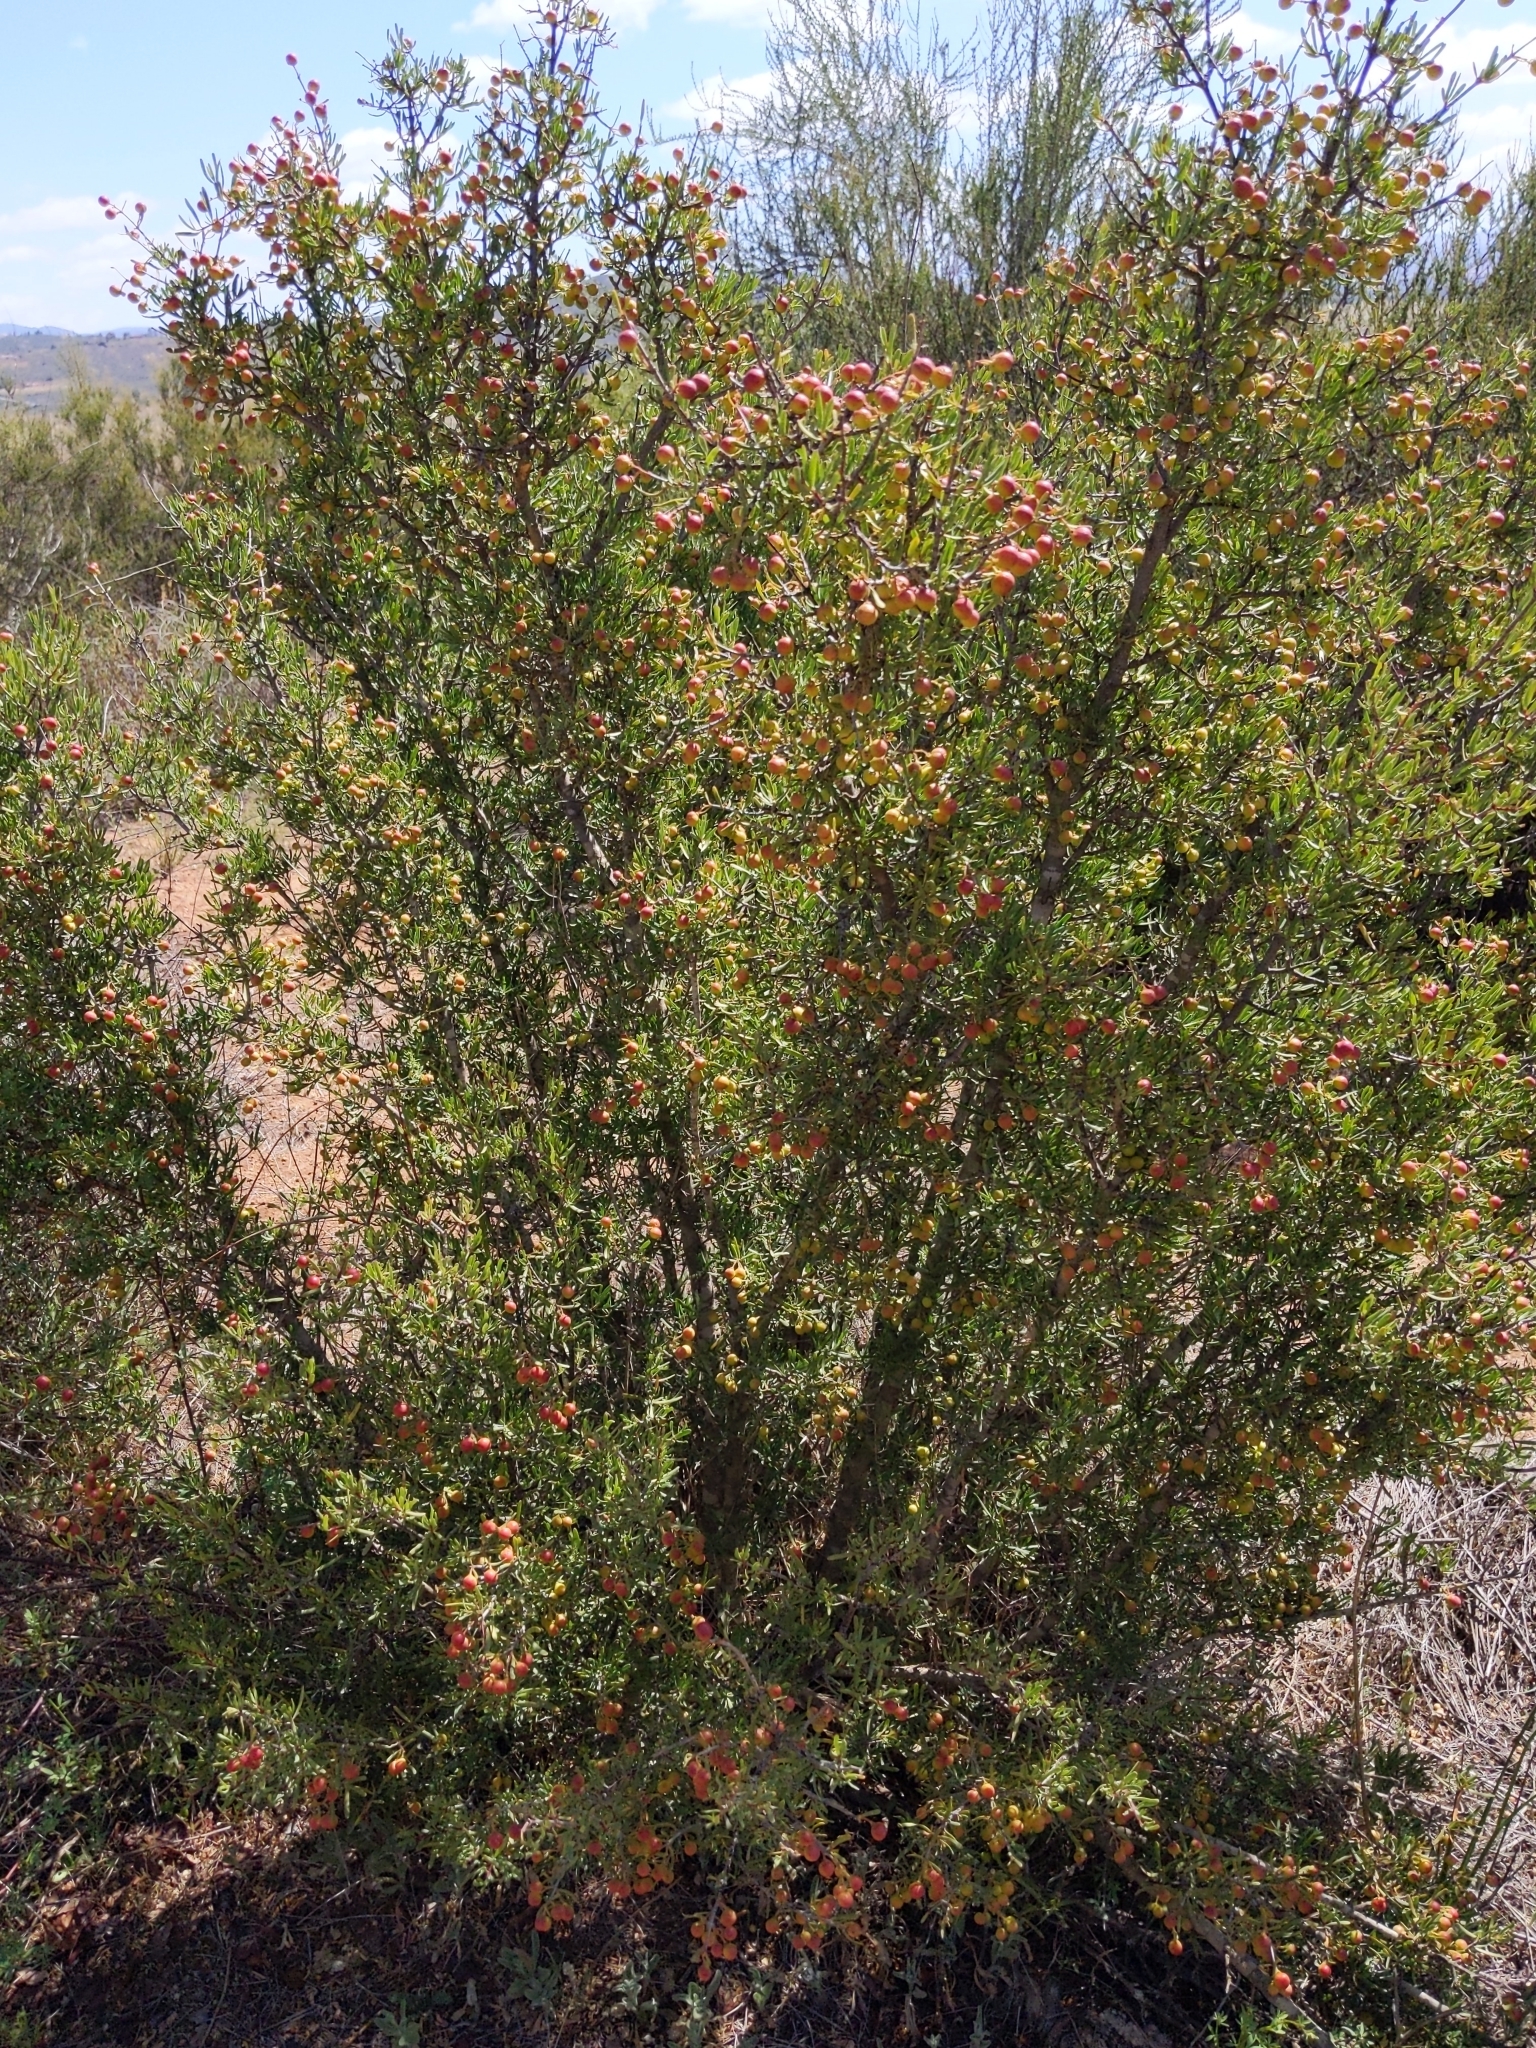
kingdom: Plantae
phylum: Tracheophyta
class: Magnoliopsida
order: Sapindales
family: Rutaceae
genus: Cneoridium
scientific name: Cneoridium dumosum
